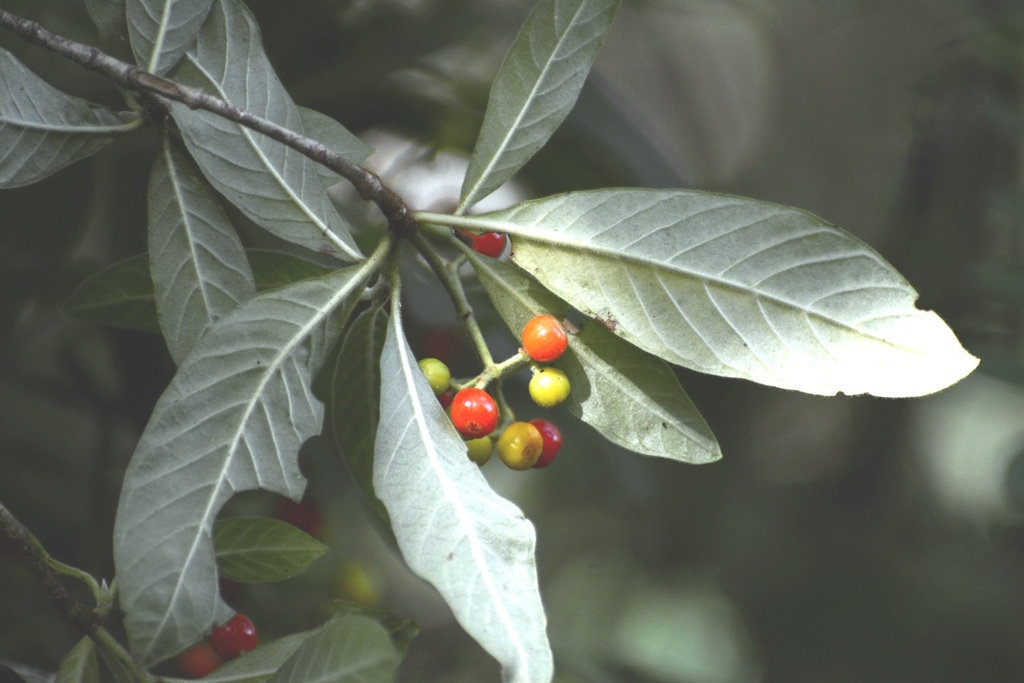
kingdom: Plantae
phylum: Tracheophyta
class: Magnoliopsida
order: Gentianales
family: Rubiaceae
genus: Psychotria
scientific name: Psychotria erythrocarpa
